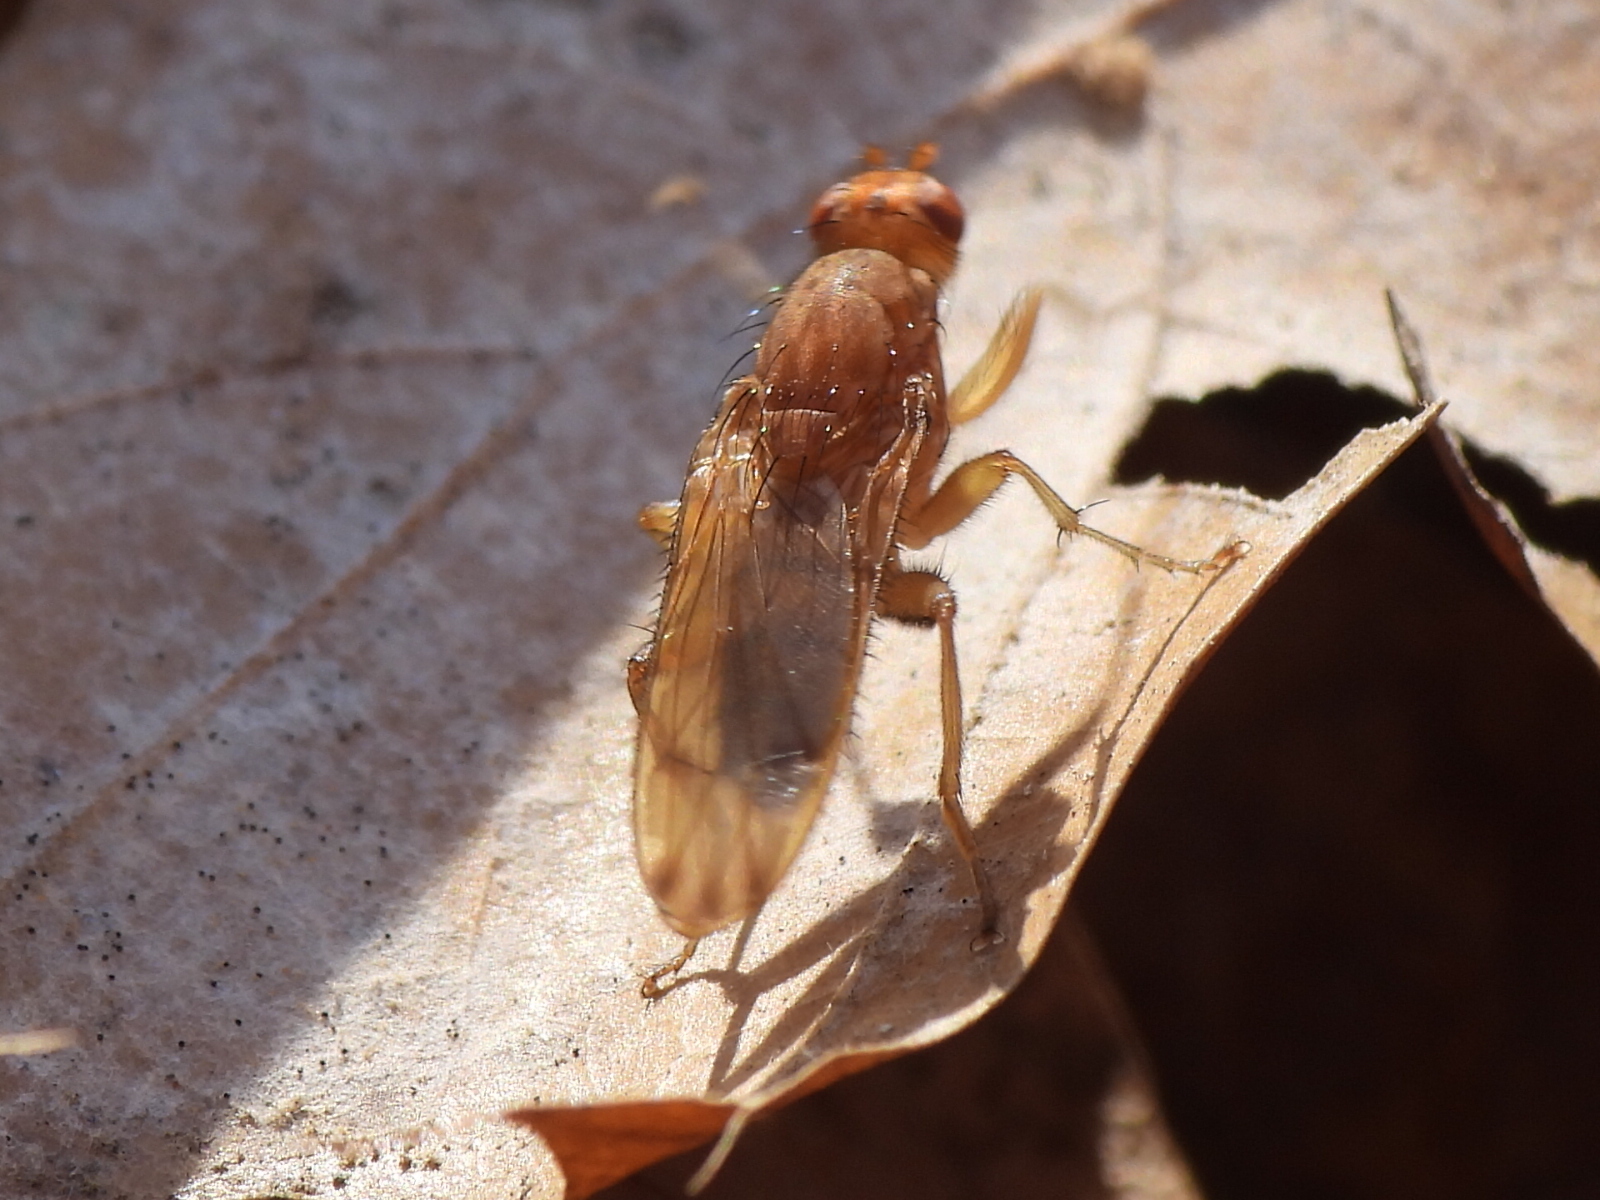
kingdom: Animalia
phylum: Arthropoda
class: Insecta
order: Diptera
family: Heleomyzidae
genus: Amoebaleria
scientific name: Amoebaleria helvola
